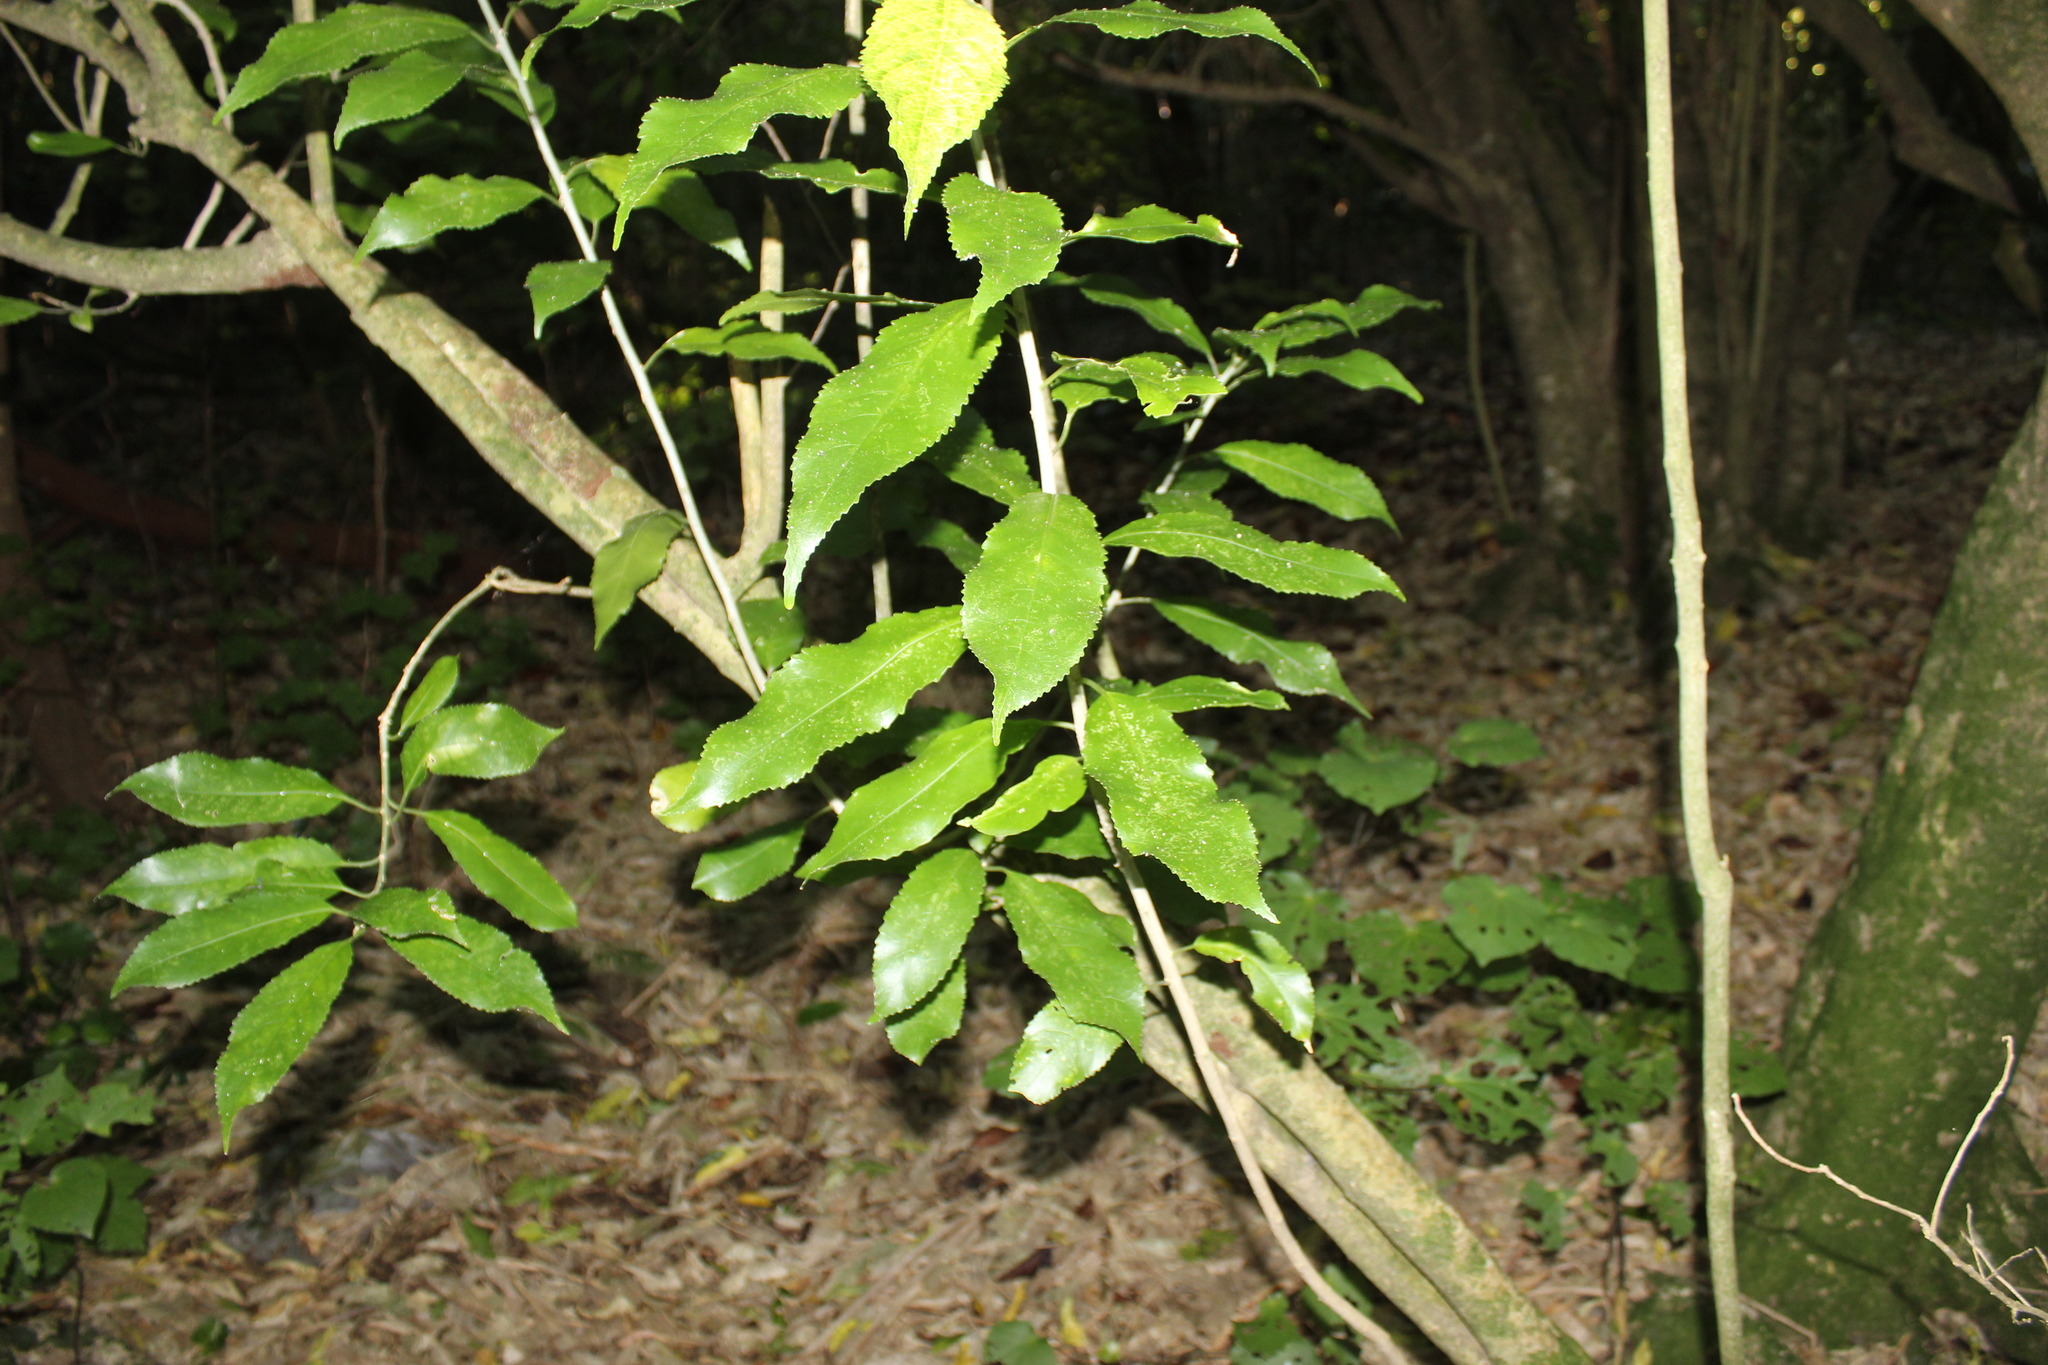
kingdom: Plantae
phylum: Tracheophyta
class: Magnoliopsida
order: Malpighiales
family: Violaceae
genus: Melicytus
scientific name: Melicytus ramiflorus
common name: Mahoe
